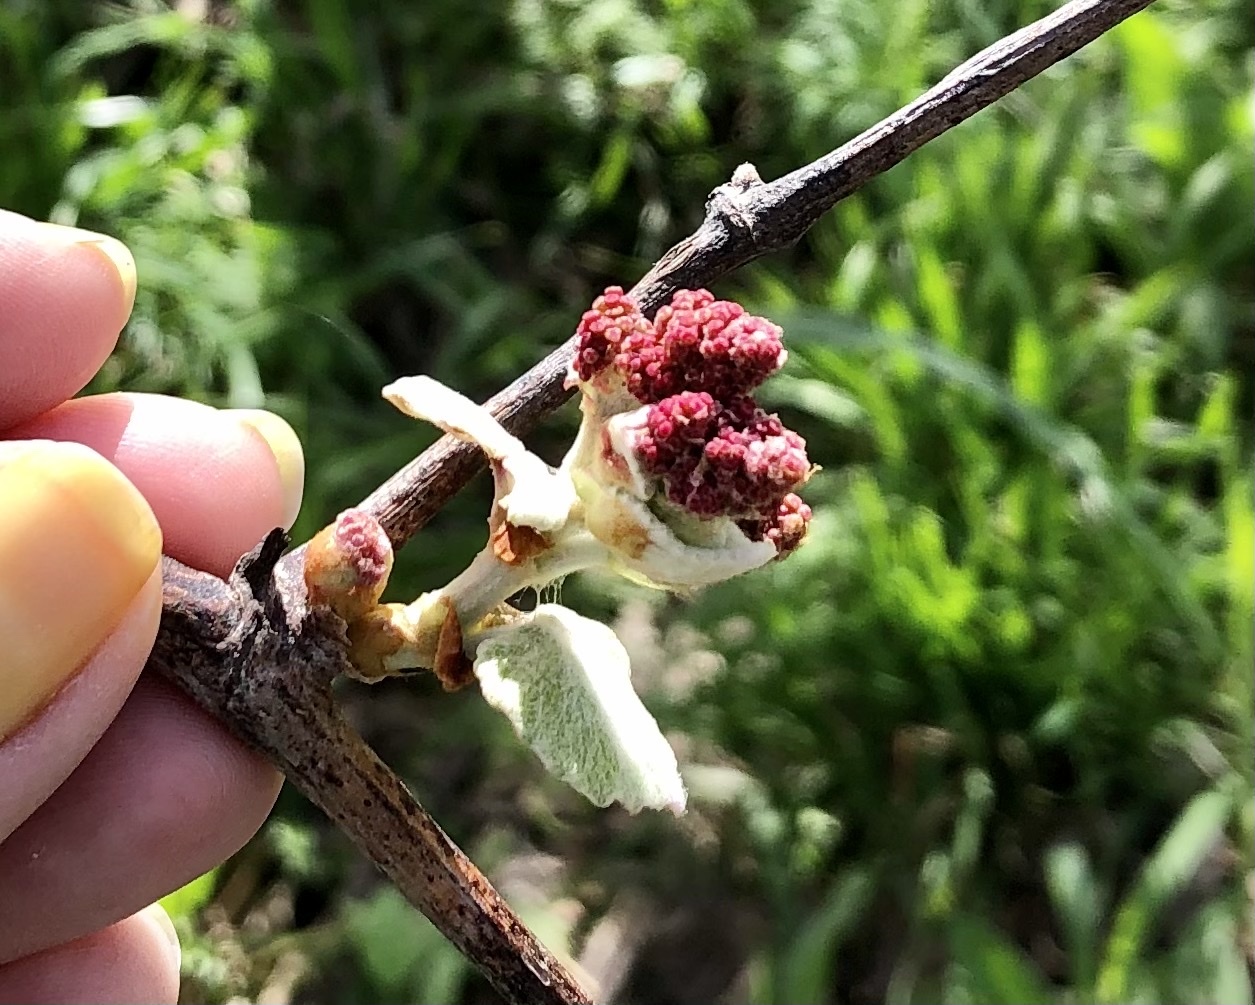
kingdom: Plantae
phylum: Tracheophyta
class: Magnoliopsida
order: Vitales
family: Vitaceae
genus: Vitis
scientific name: Vitis mustangensis
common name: Mustang grape
